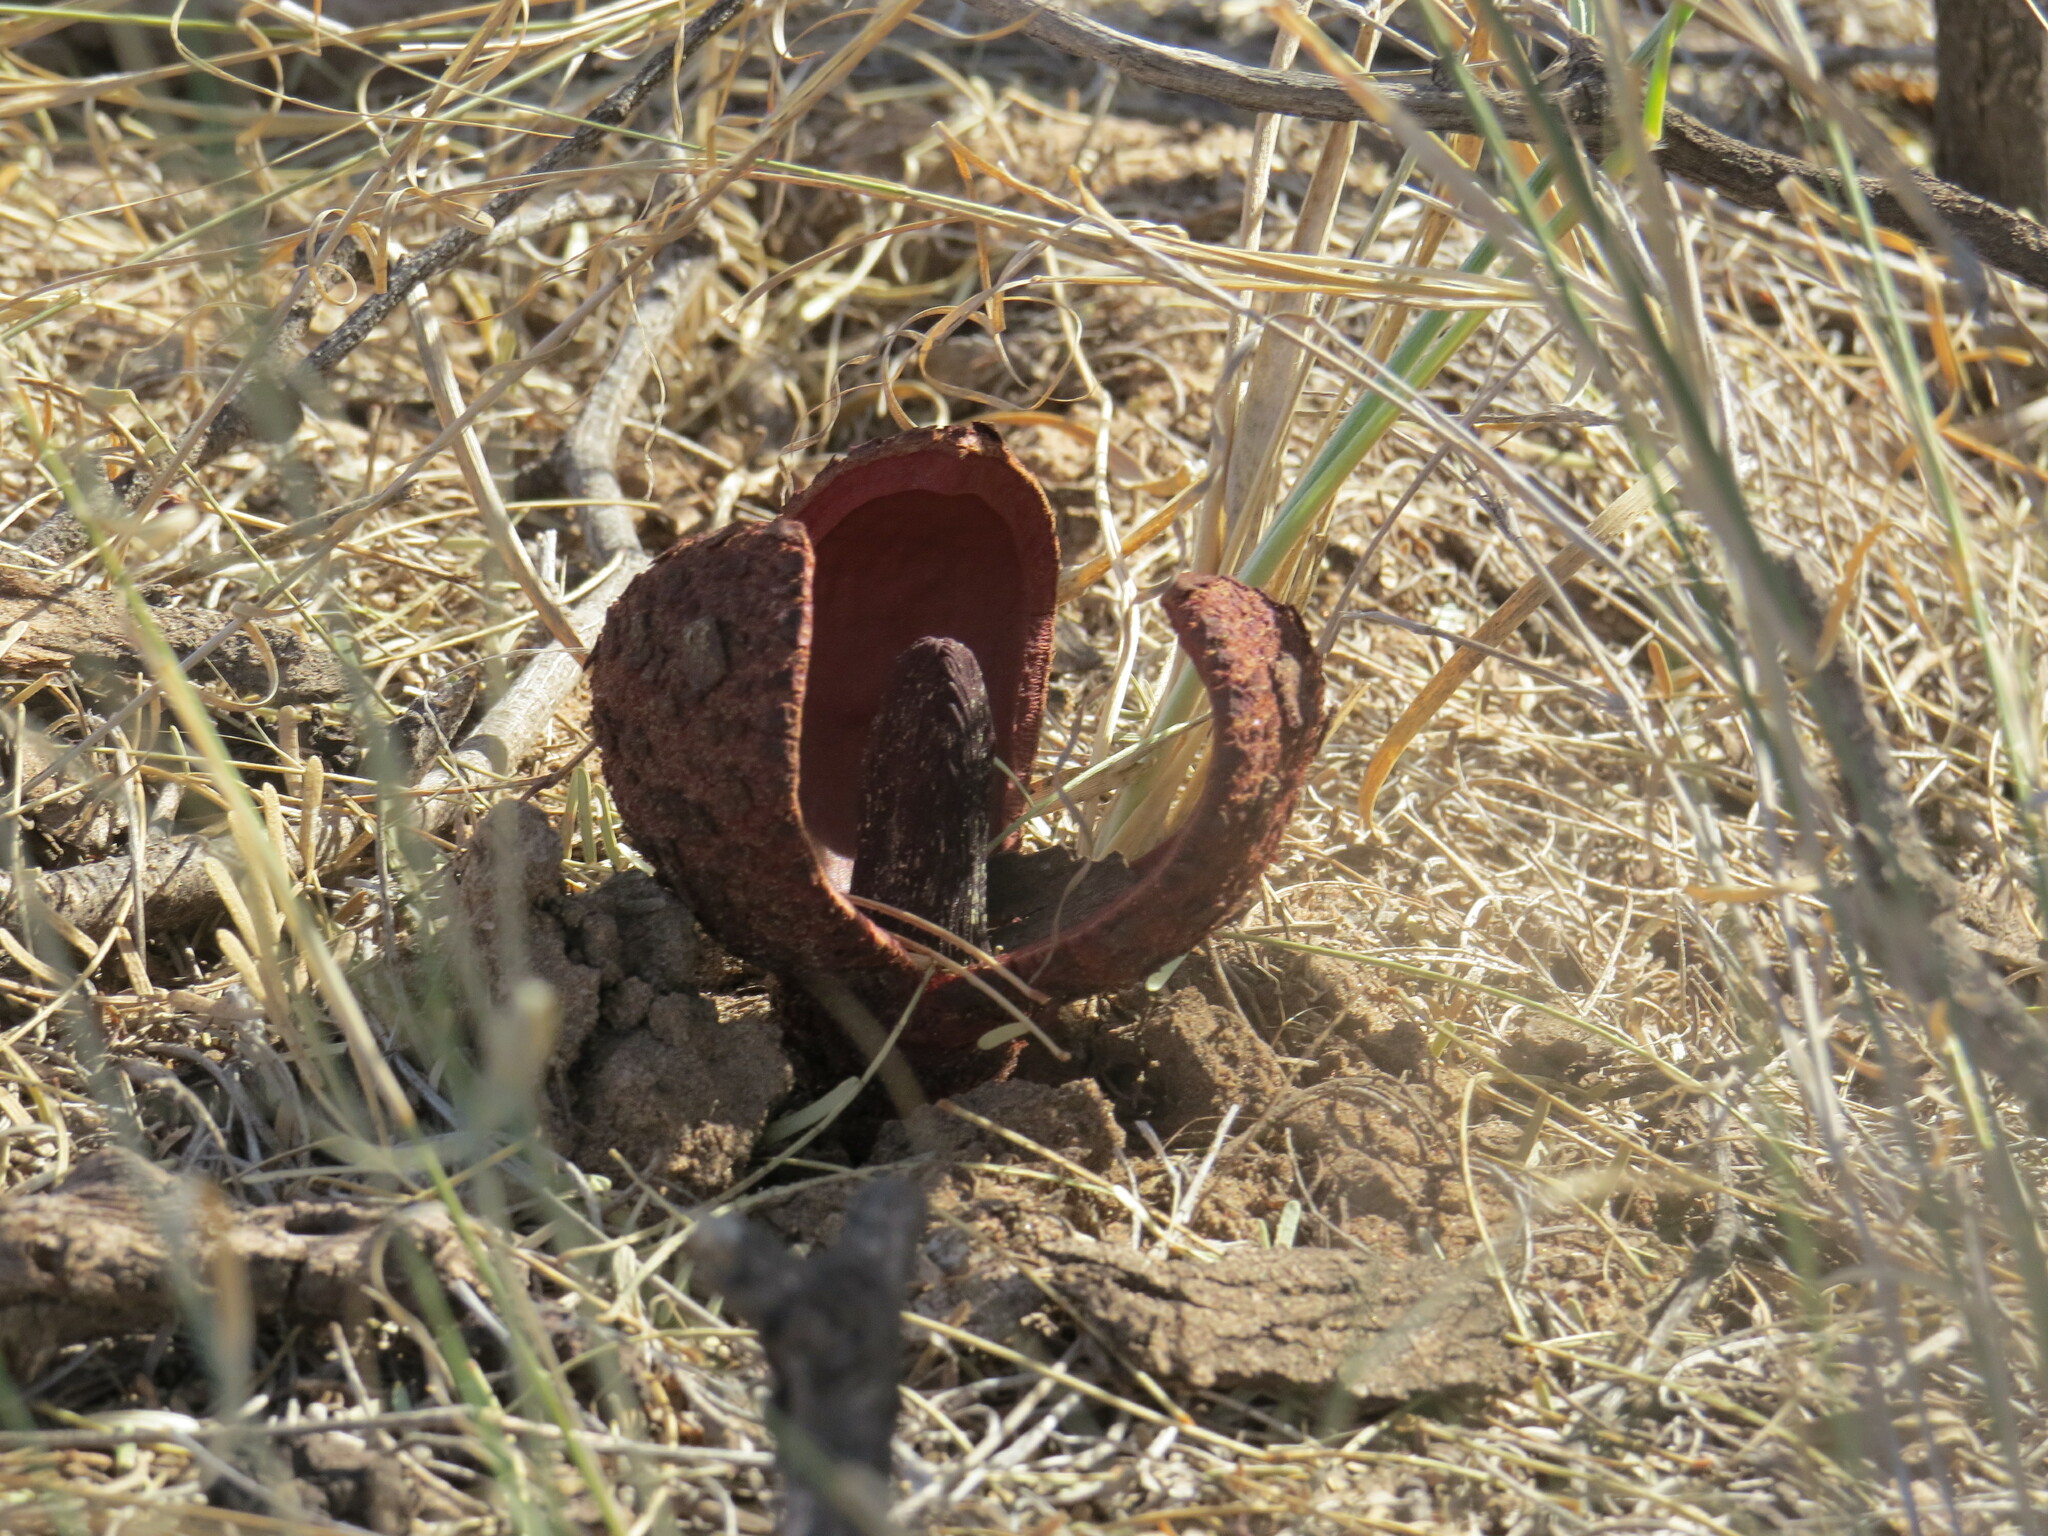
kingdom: Plantae
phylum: Tracheophyta
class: Magnoliopsida
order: Piperales
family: Hydnoraceae
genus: Prosopanche
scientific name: Prosopanche americana
